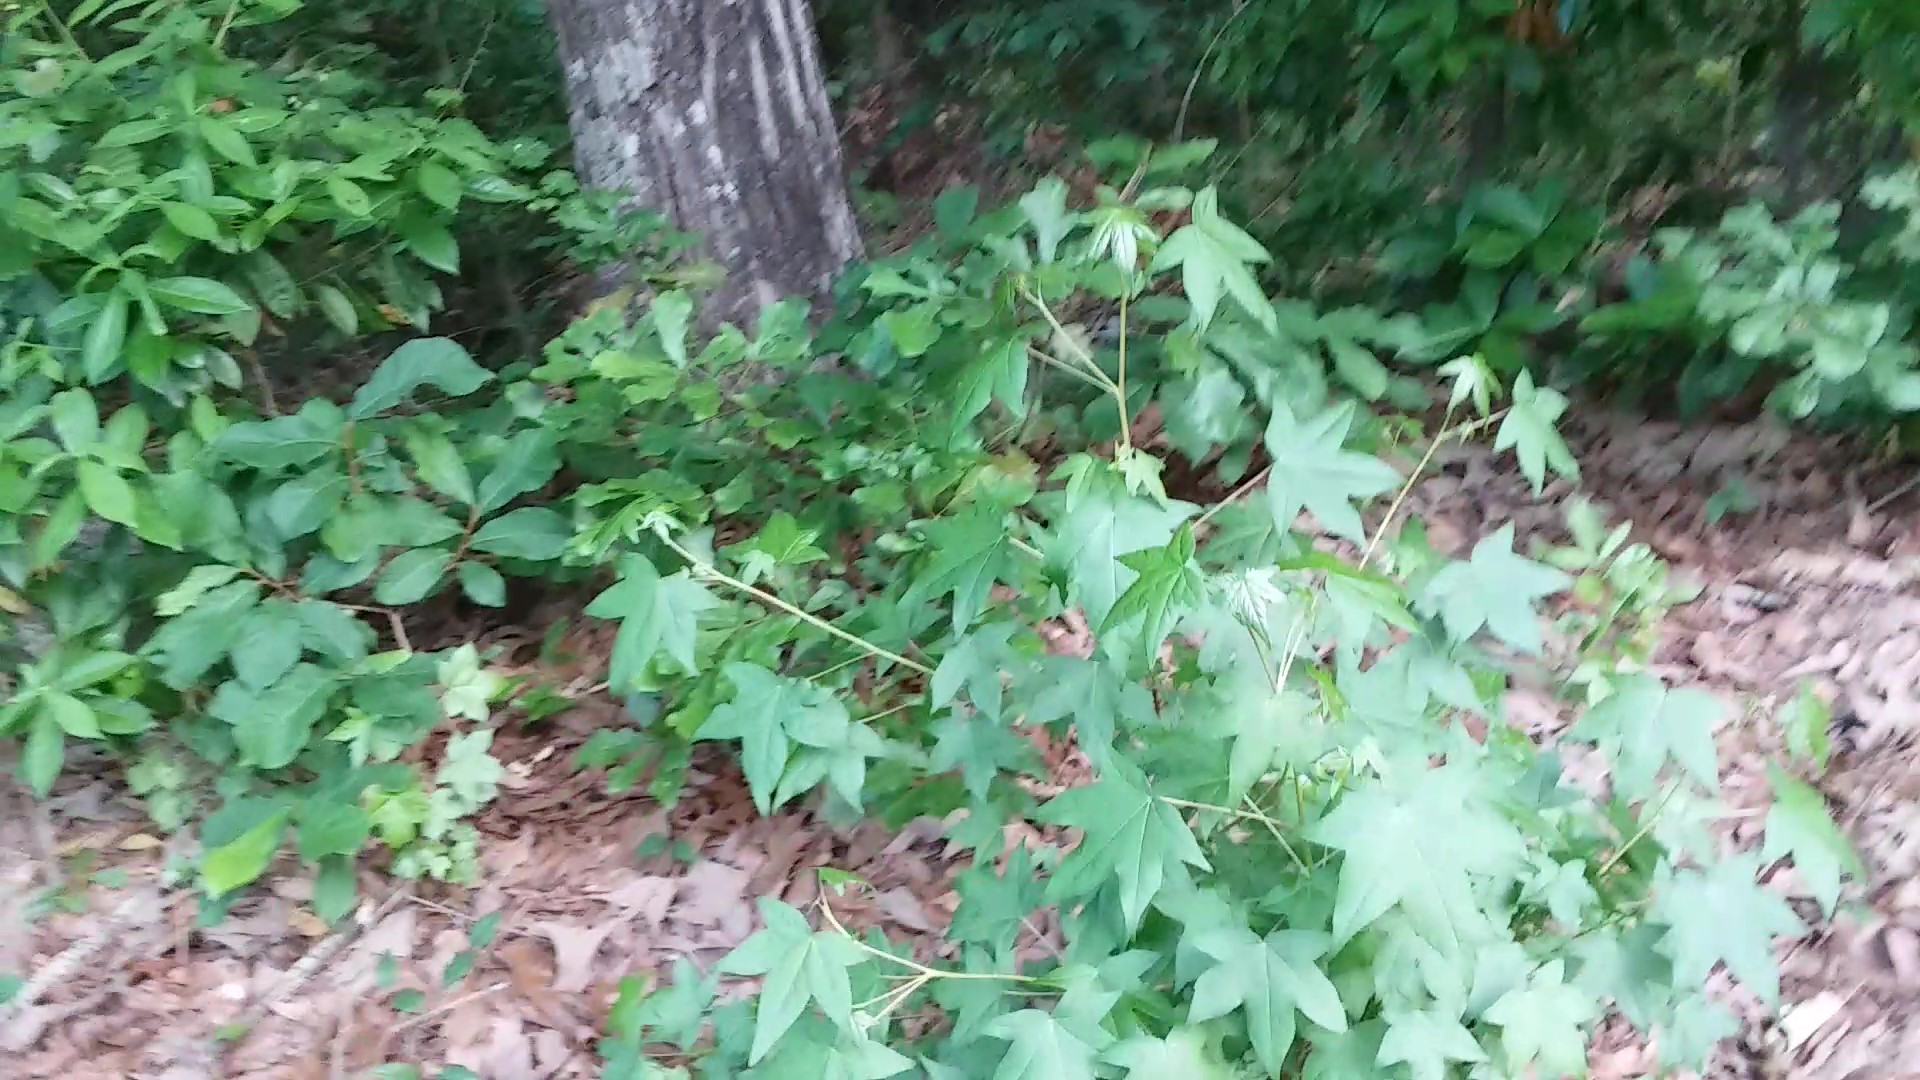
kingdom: Plantae
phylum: Tracheophyta
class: Magnoliopsida
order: Saxifragales
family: Altingiaceae
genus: Liquidambar
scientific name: Liquidambar styraciflua
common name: Sweet gum
